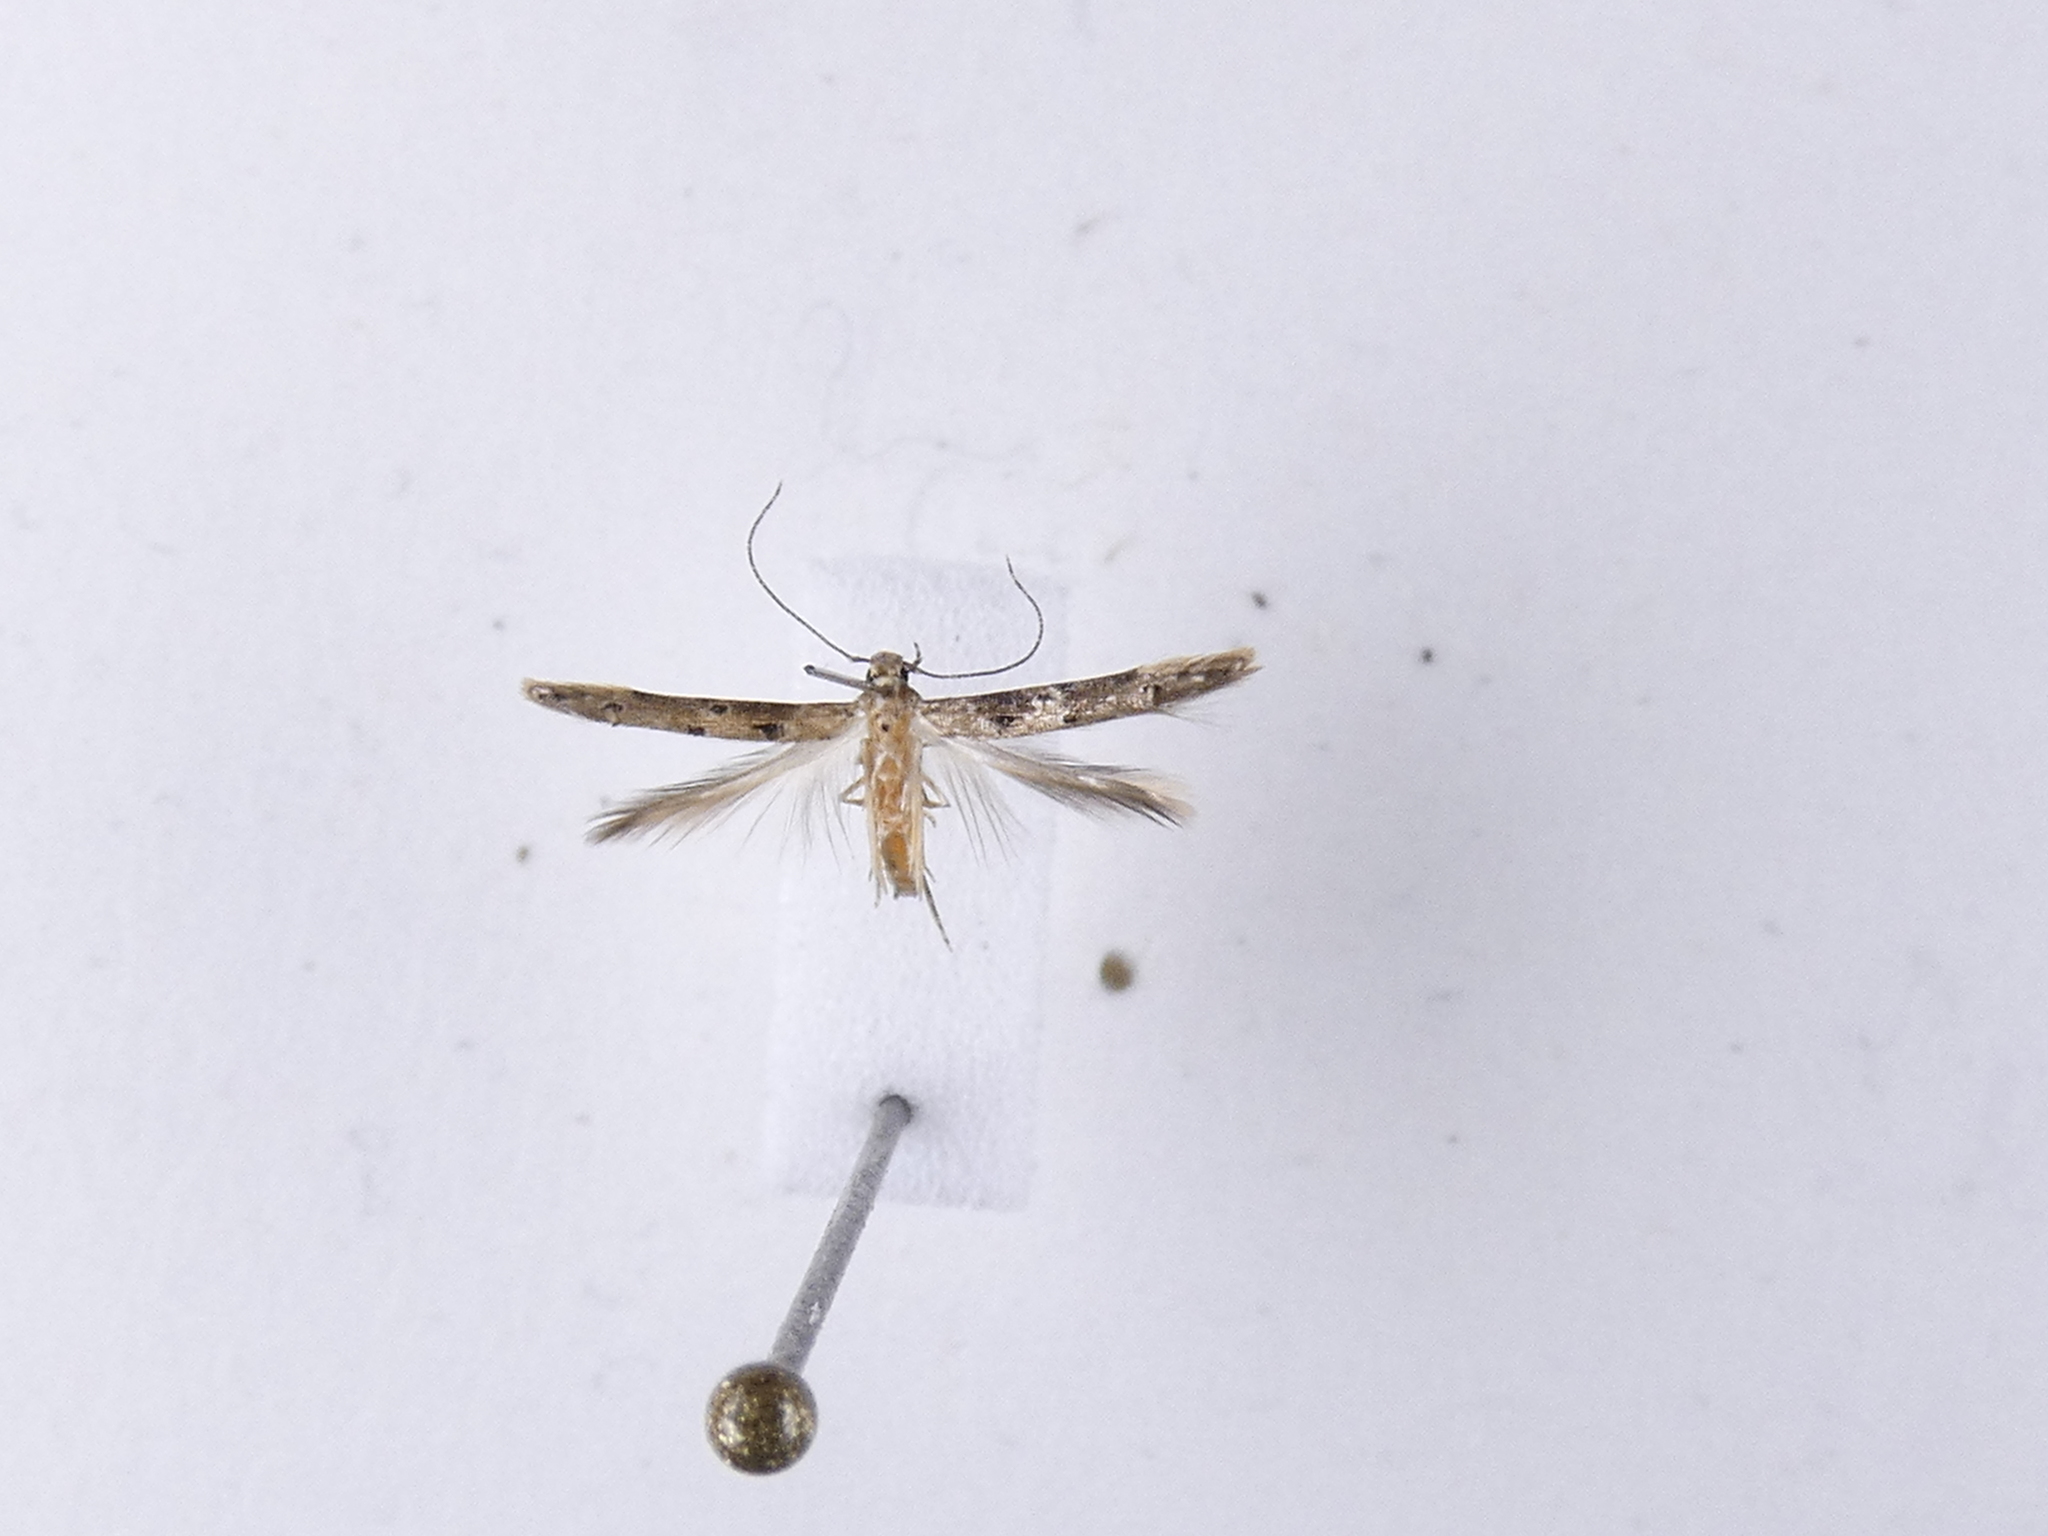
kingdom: Animalia
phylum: Arthropoda
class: Insecta
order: Lepidoptera
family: Elachistidae
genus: Microcolona
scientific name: Microcolona limodes
